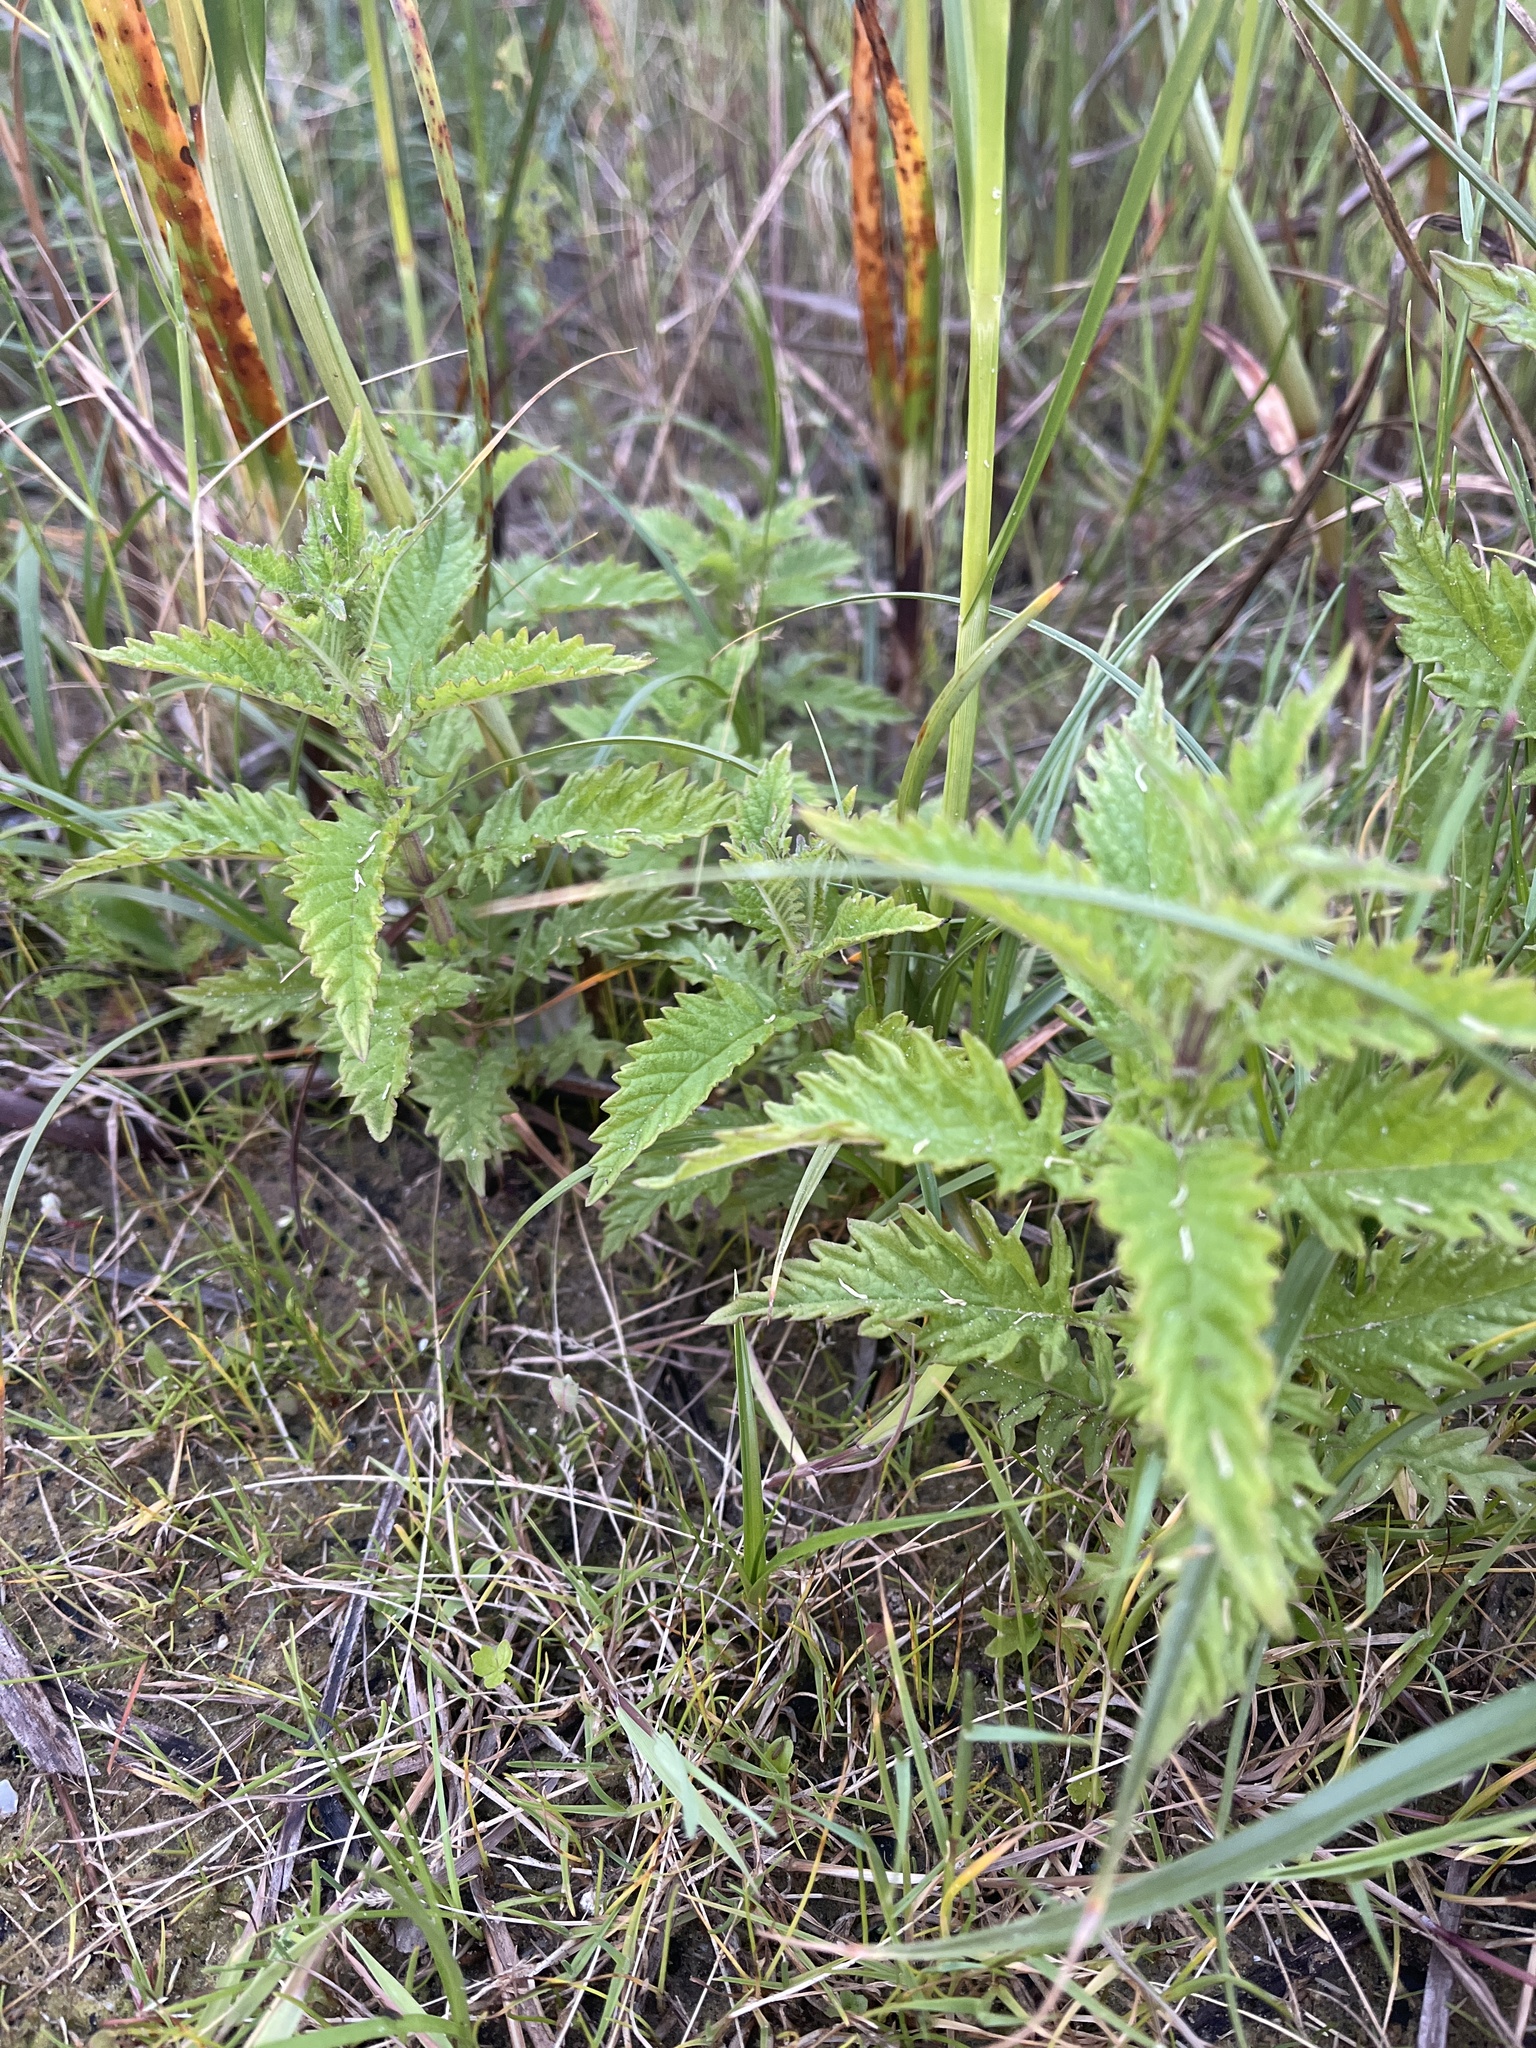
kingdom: Plantae
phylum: Tracheophyta
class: Magnoliopsida
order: Lamiales
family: Lamiaceae
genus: Lycopus
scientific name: Lycopus europaeus
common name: European bugleweed
